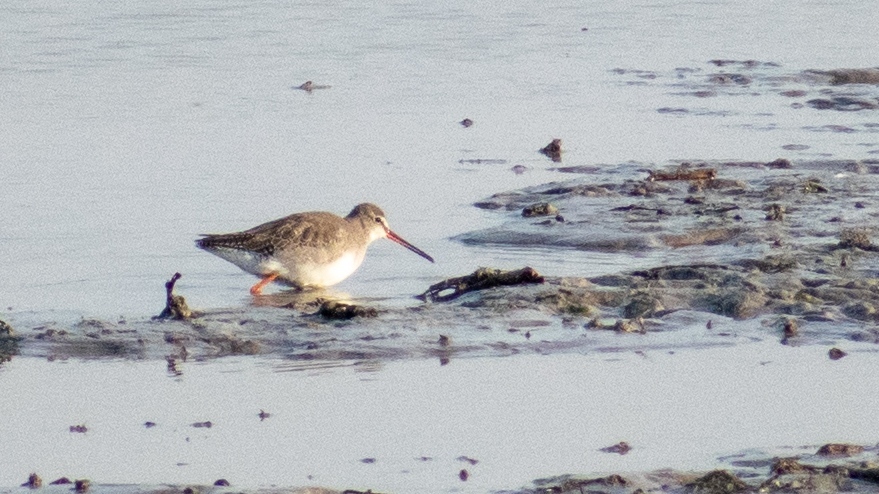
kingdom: Animalia
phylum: Chordata
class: Aves
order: Charadriiformes
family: Scolopacidae
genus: Tringa
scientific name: Tringa erythropus
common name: Spotted redshank
